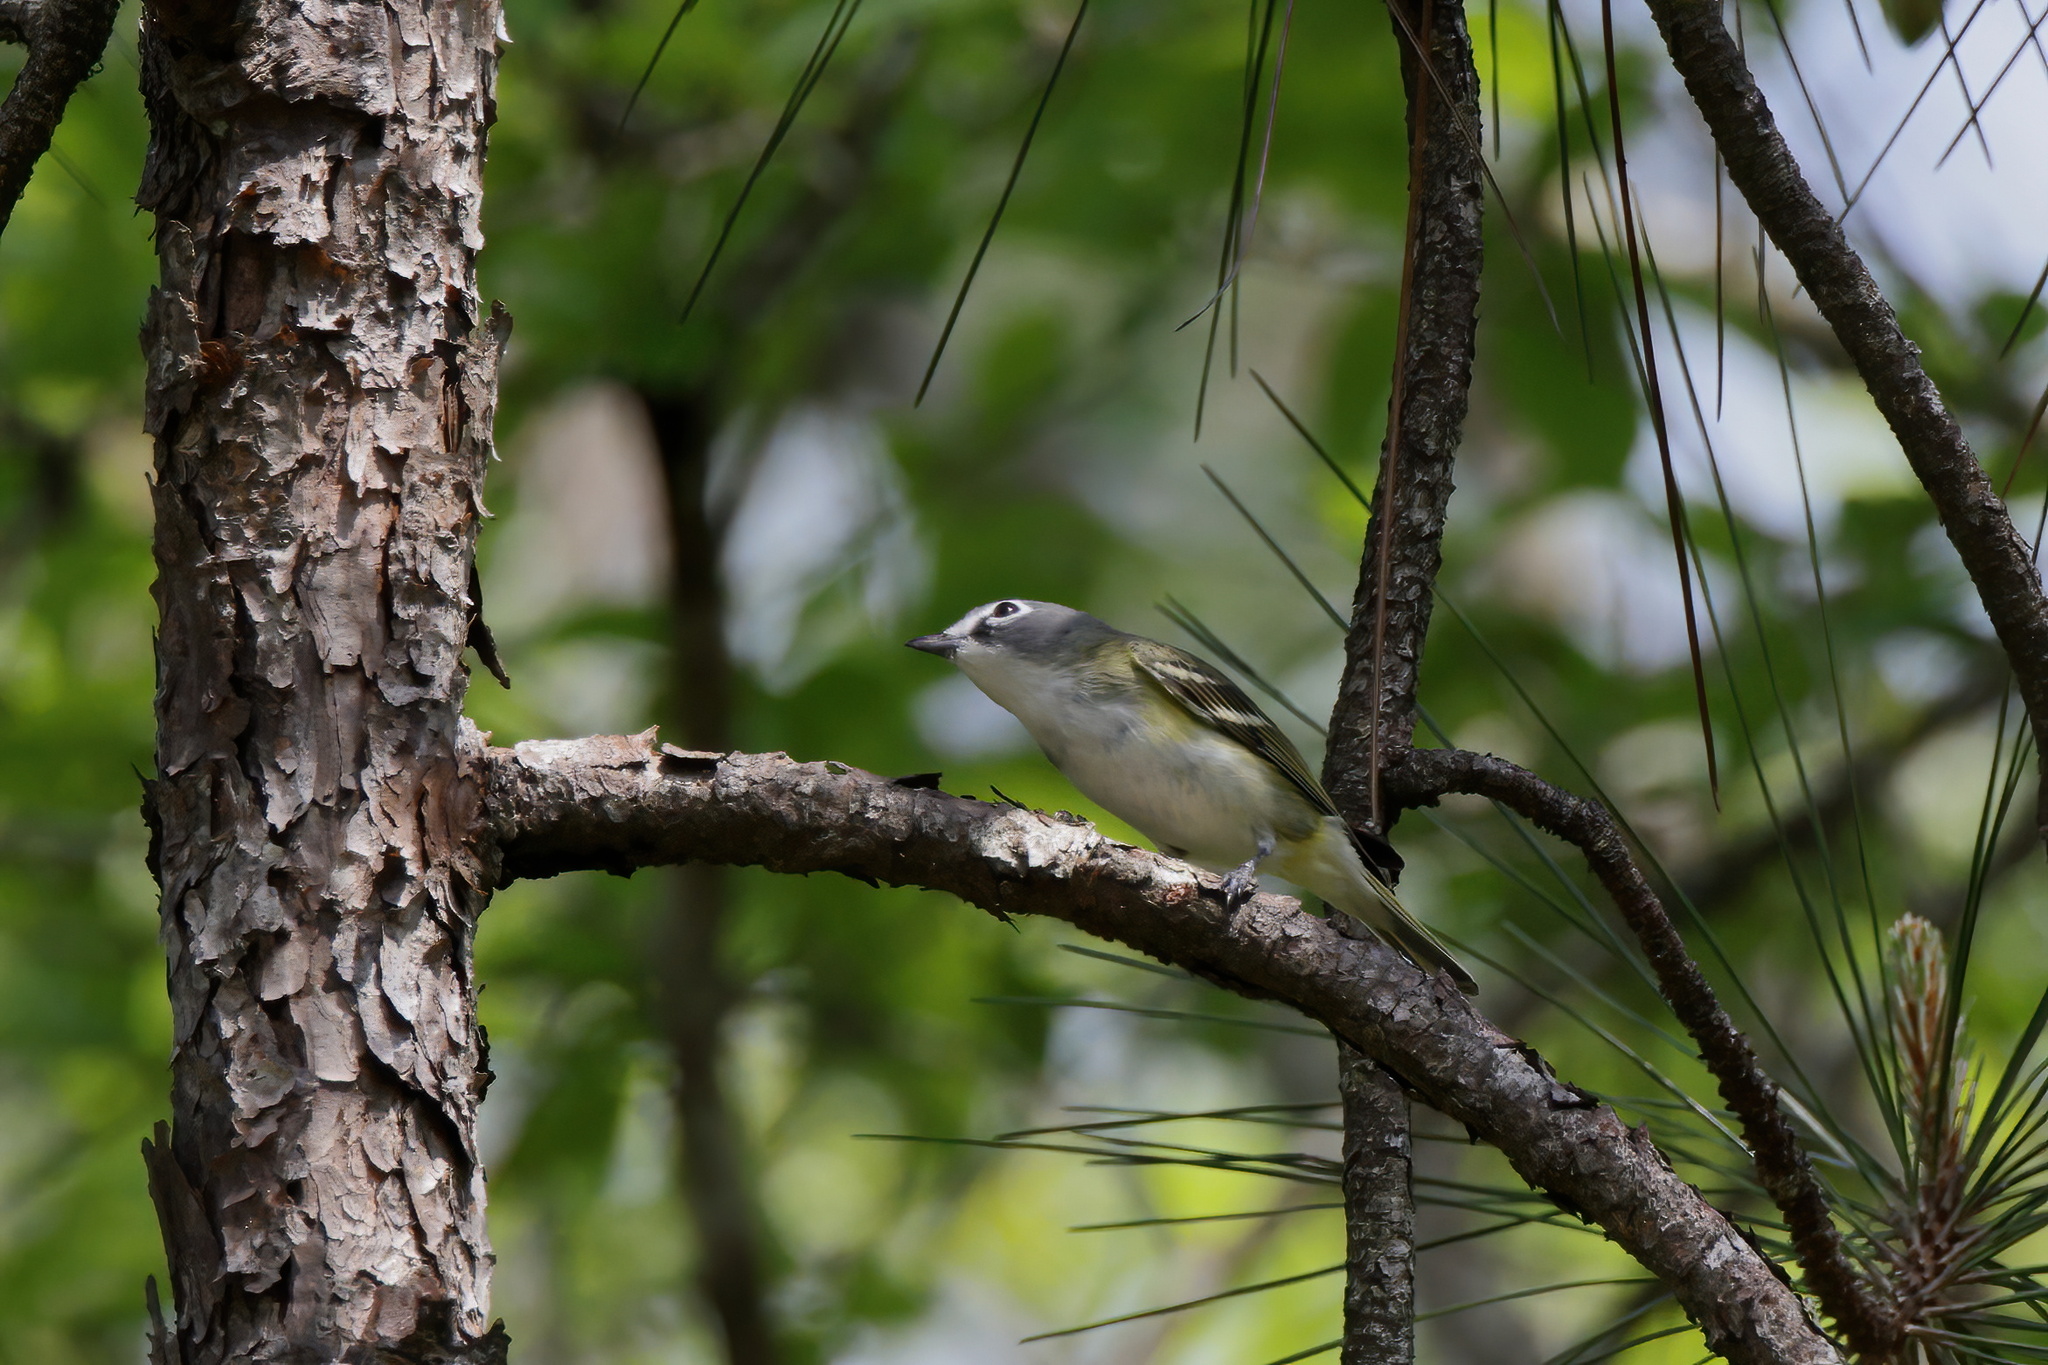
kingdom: Animalia
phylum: Chordata
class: Aves
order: Passeriformes
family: Vireonidae
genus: Vireo
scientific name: Vireo solitarius
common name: Blue-headed vireo
